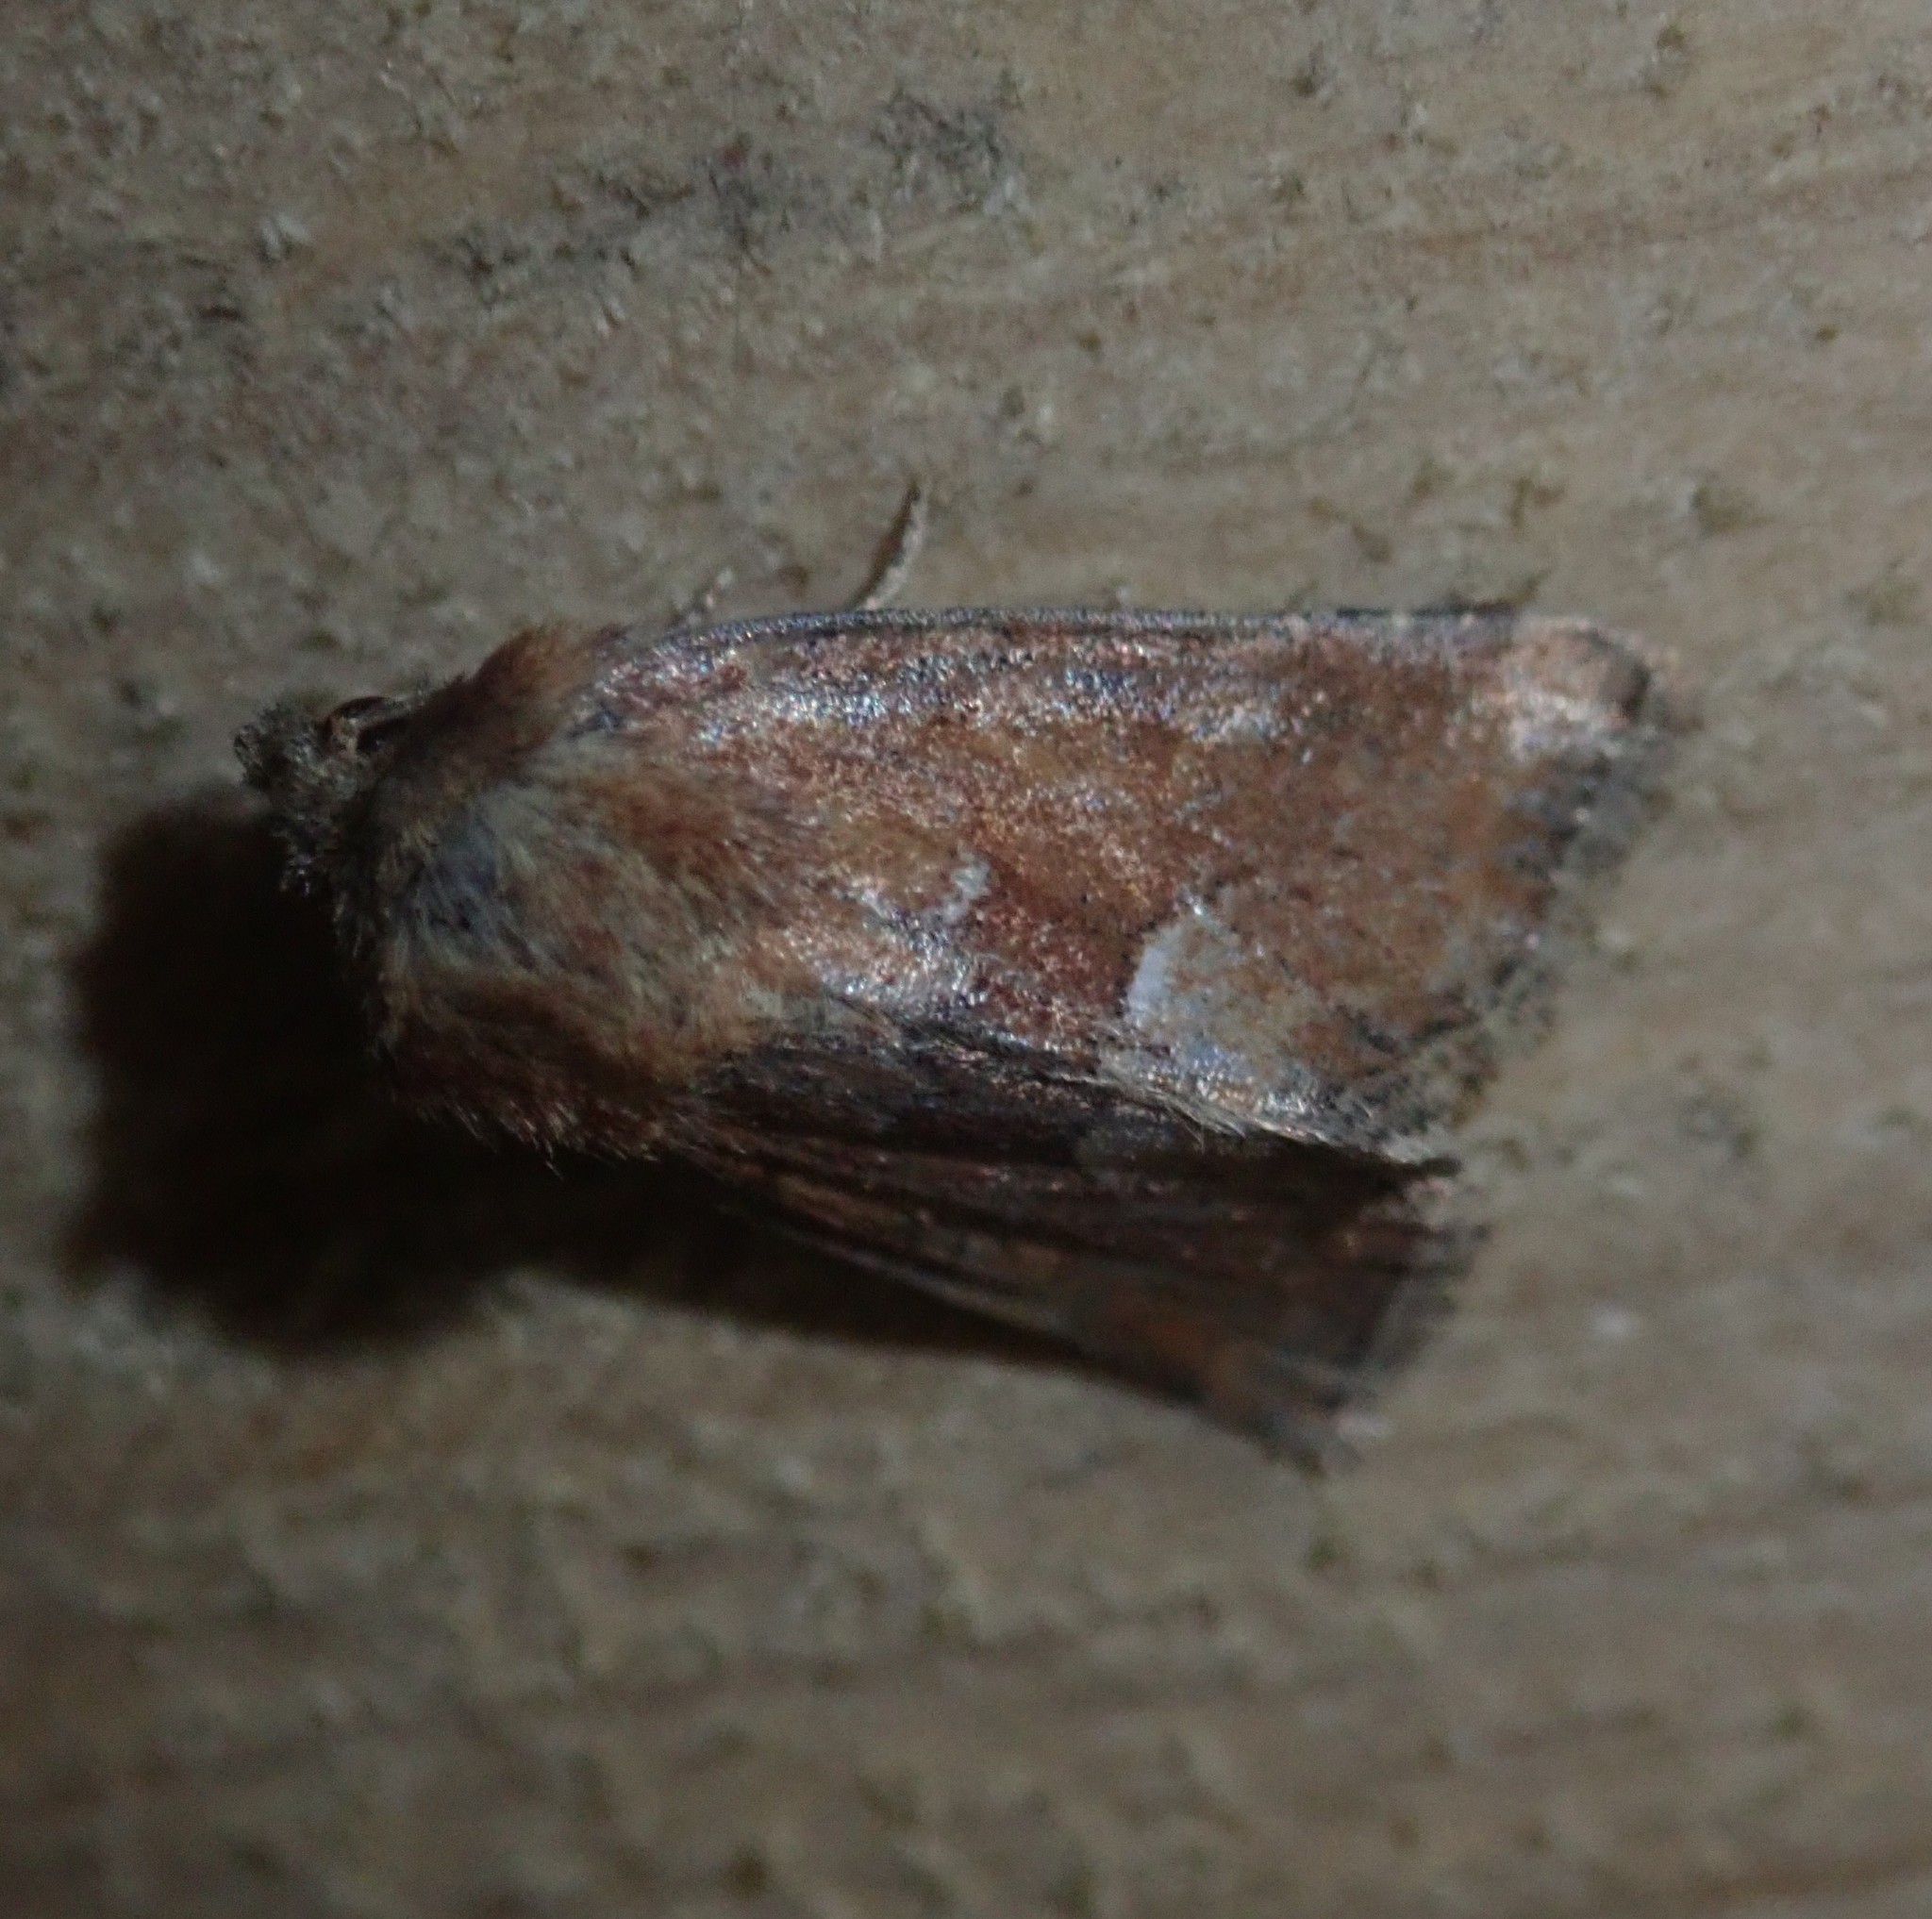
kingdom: Animalia
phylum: Arthropoda
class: Insecta
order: Lepidoptera
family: Noctuidae
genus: Oligia
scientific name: Oligia fasciuncula
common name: Middle-barred minor
